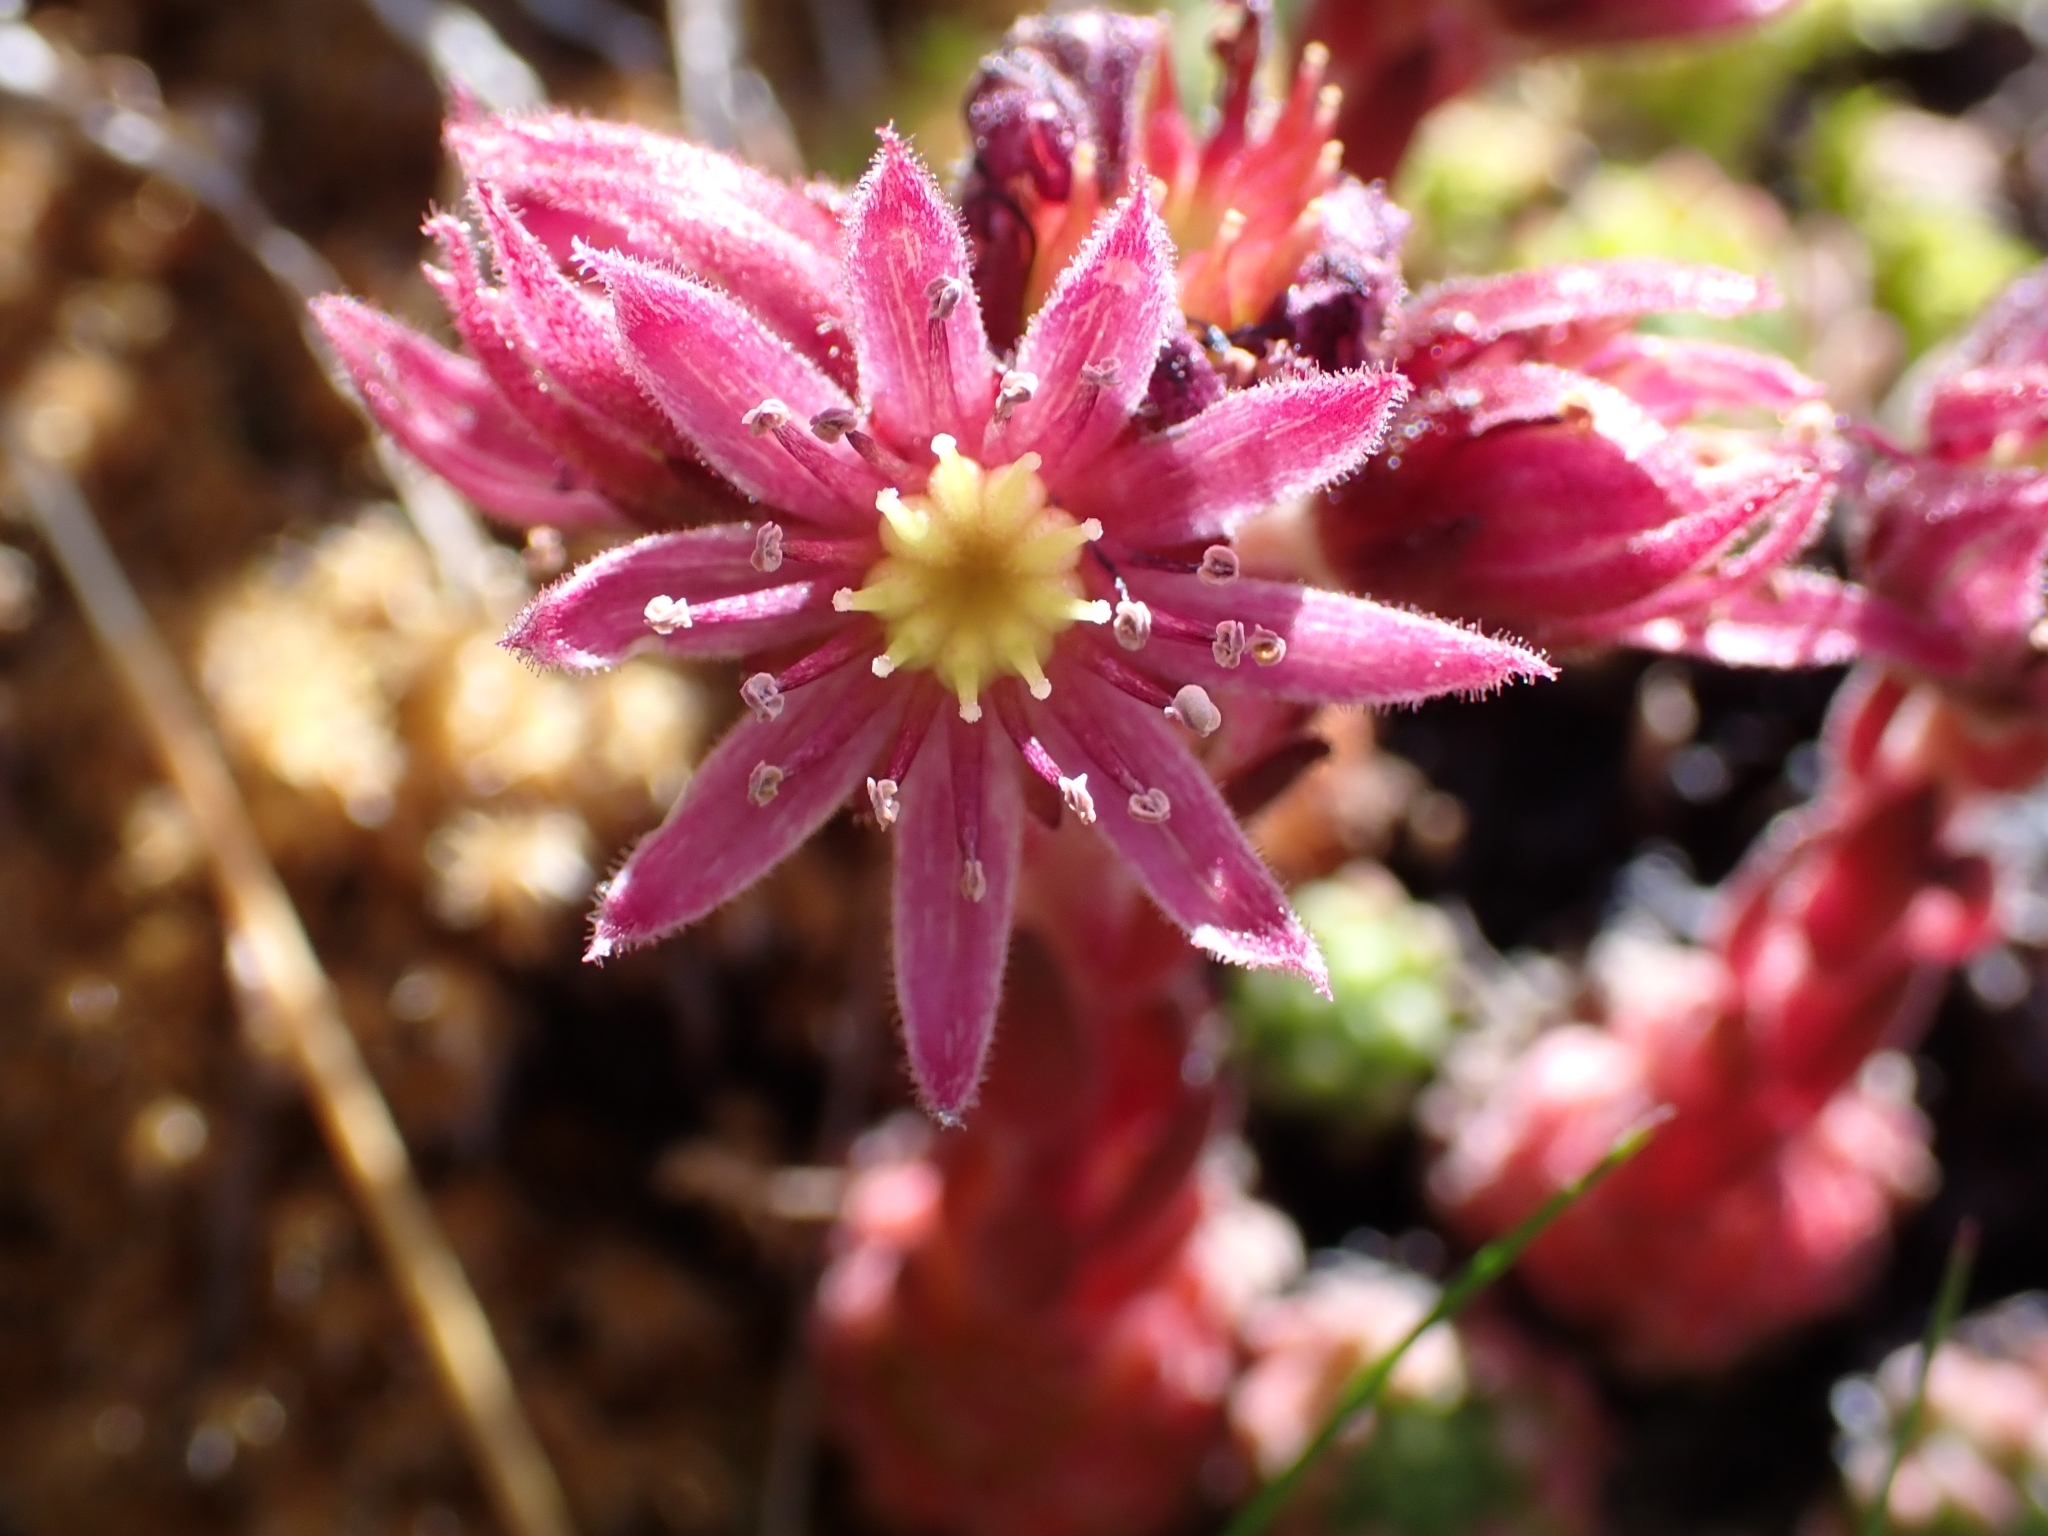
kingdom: Plantae
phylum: Tracheophyta
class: Magnoliopsida
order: Saxifragales
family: Crassulaceae
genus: Sempervivum
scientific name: Sempervivum montanum
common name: Mountain house-leek
